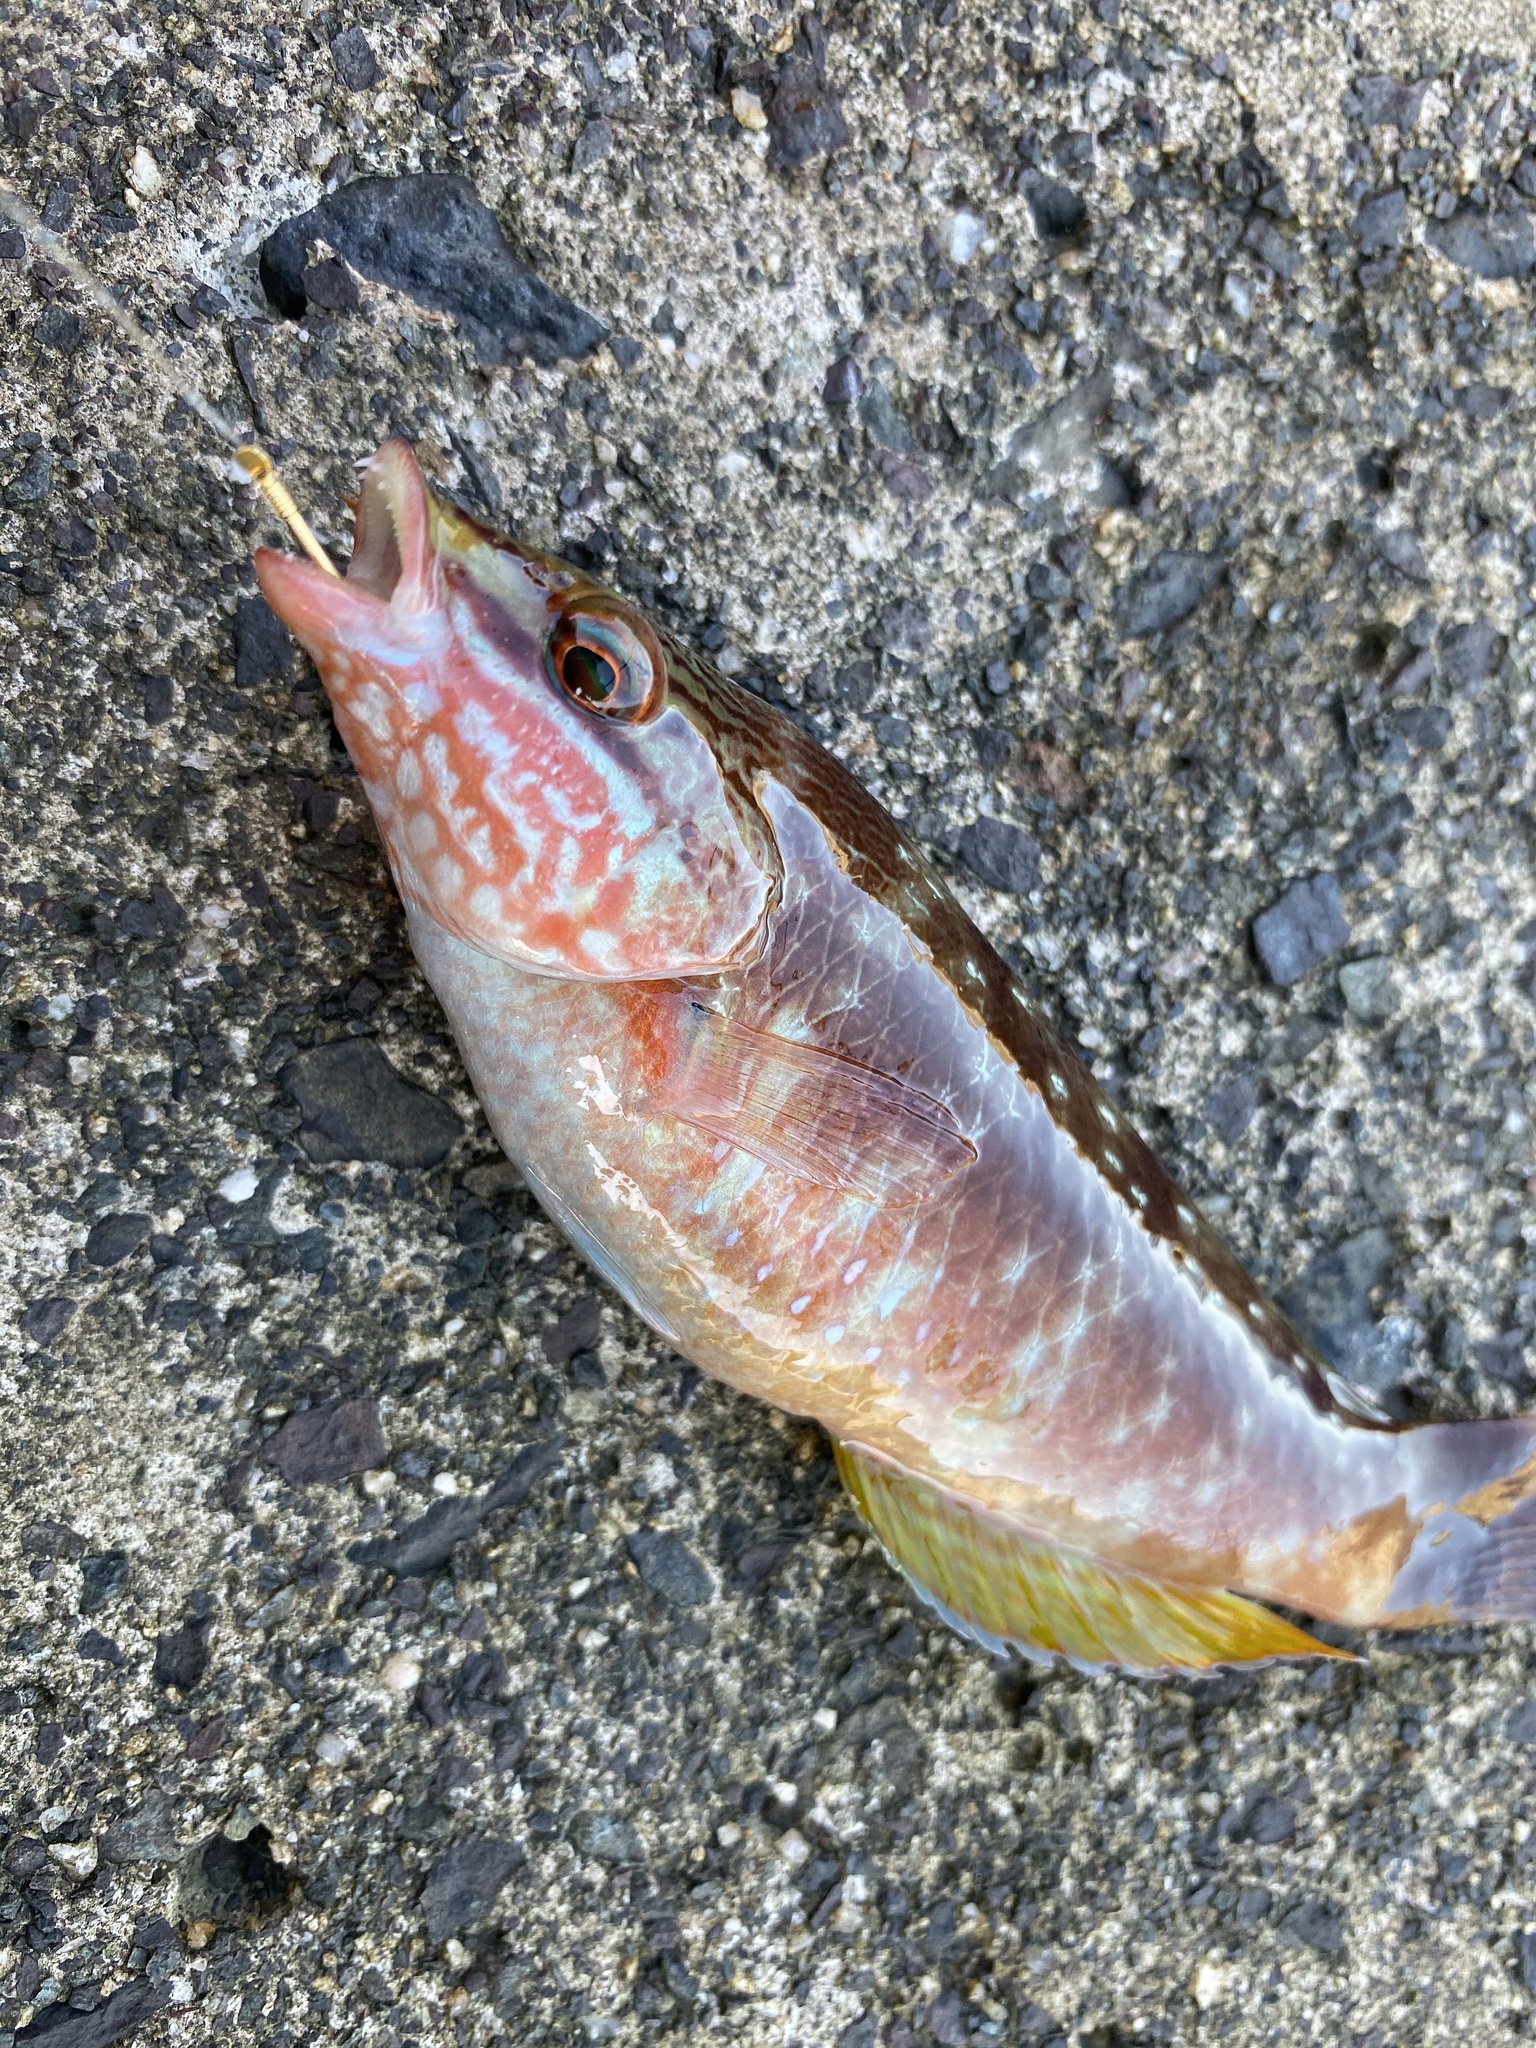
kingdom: Animalia
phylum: Chordata
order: Perciformes
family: Labridae
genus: Pseudolabrus
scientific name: Pseudolabrus sieboldi
